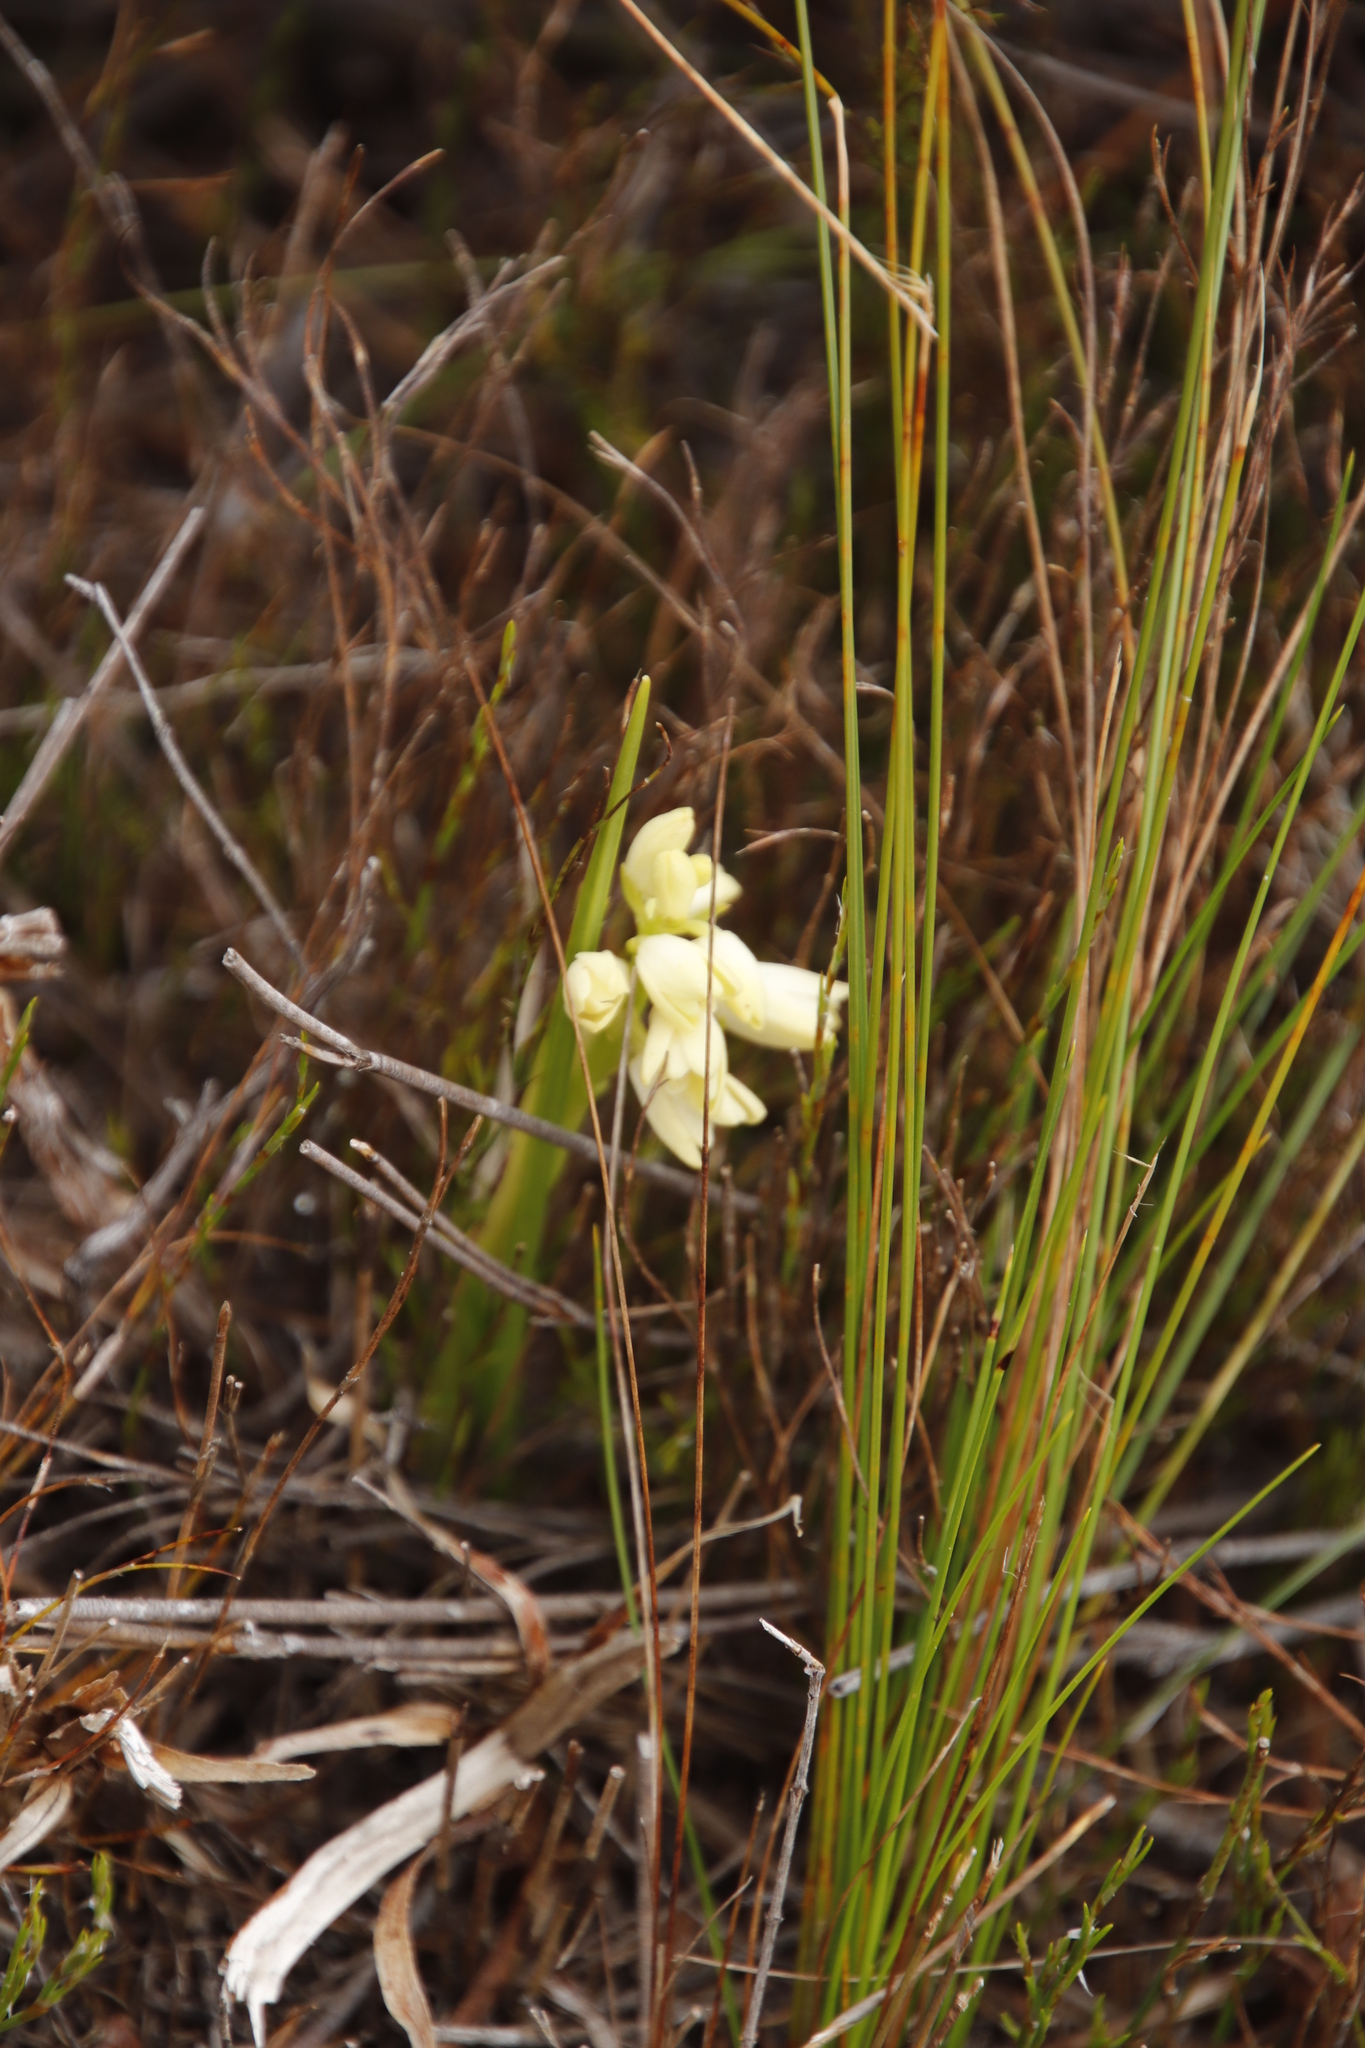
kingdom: Plantae
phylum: Tracheophyta
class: Liliopsida
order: Asparagales
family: Orchidaceae
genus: Eulophia
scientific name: Eulophia aculeata
